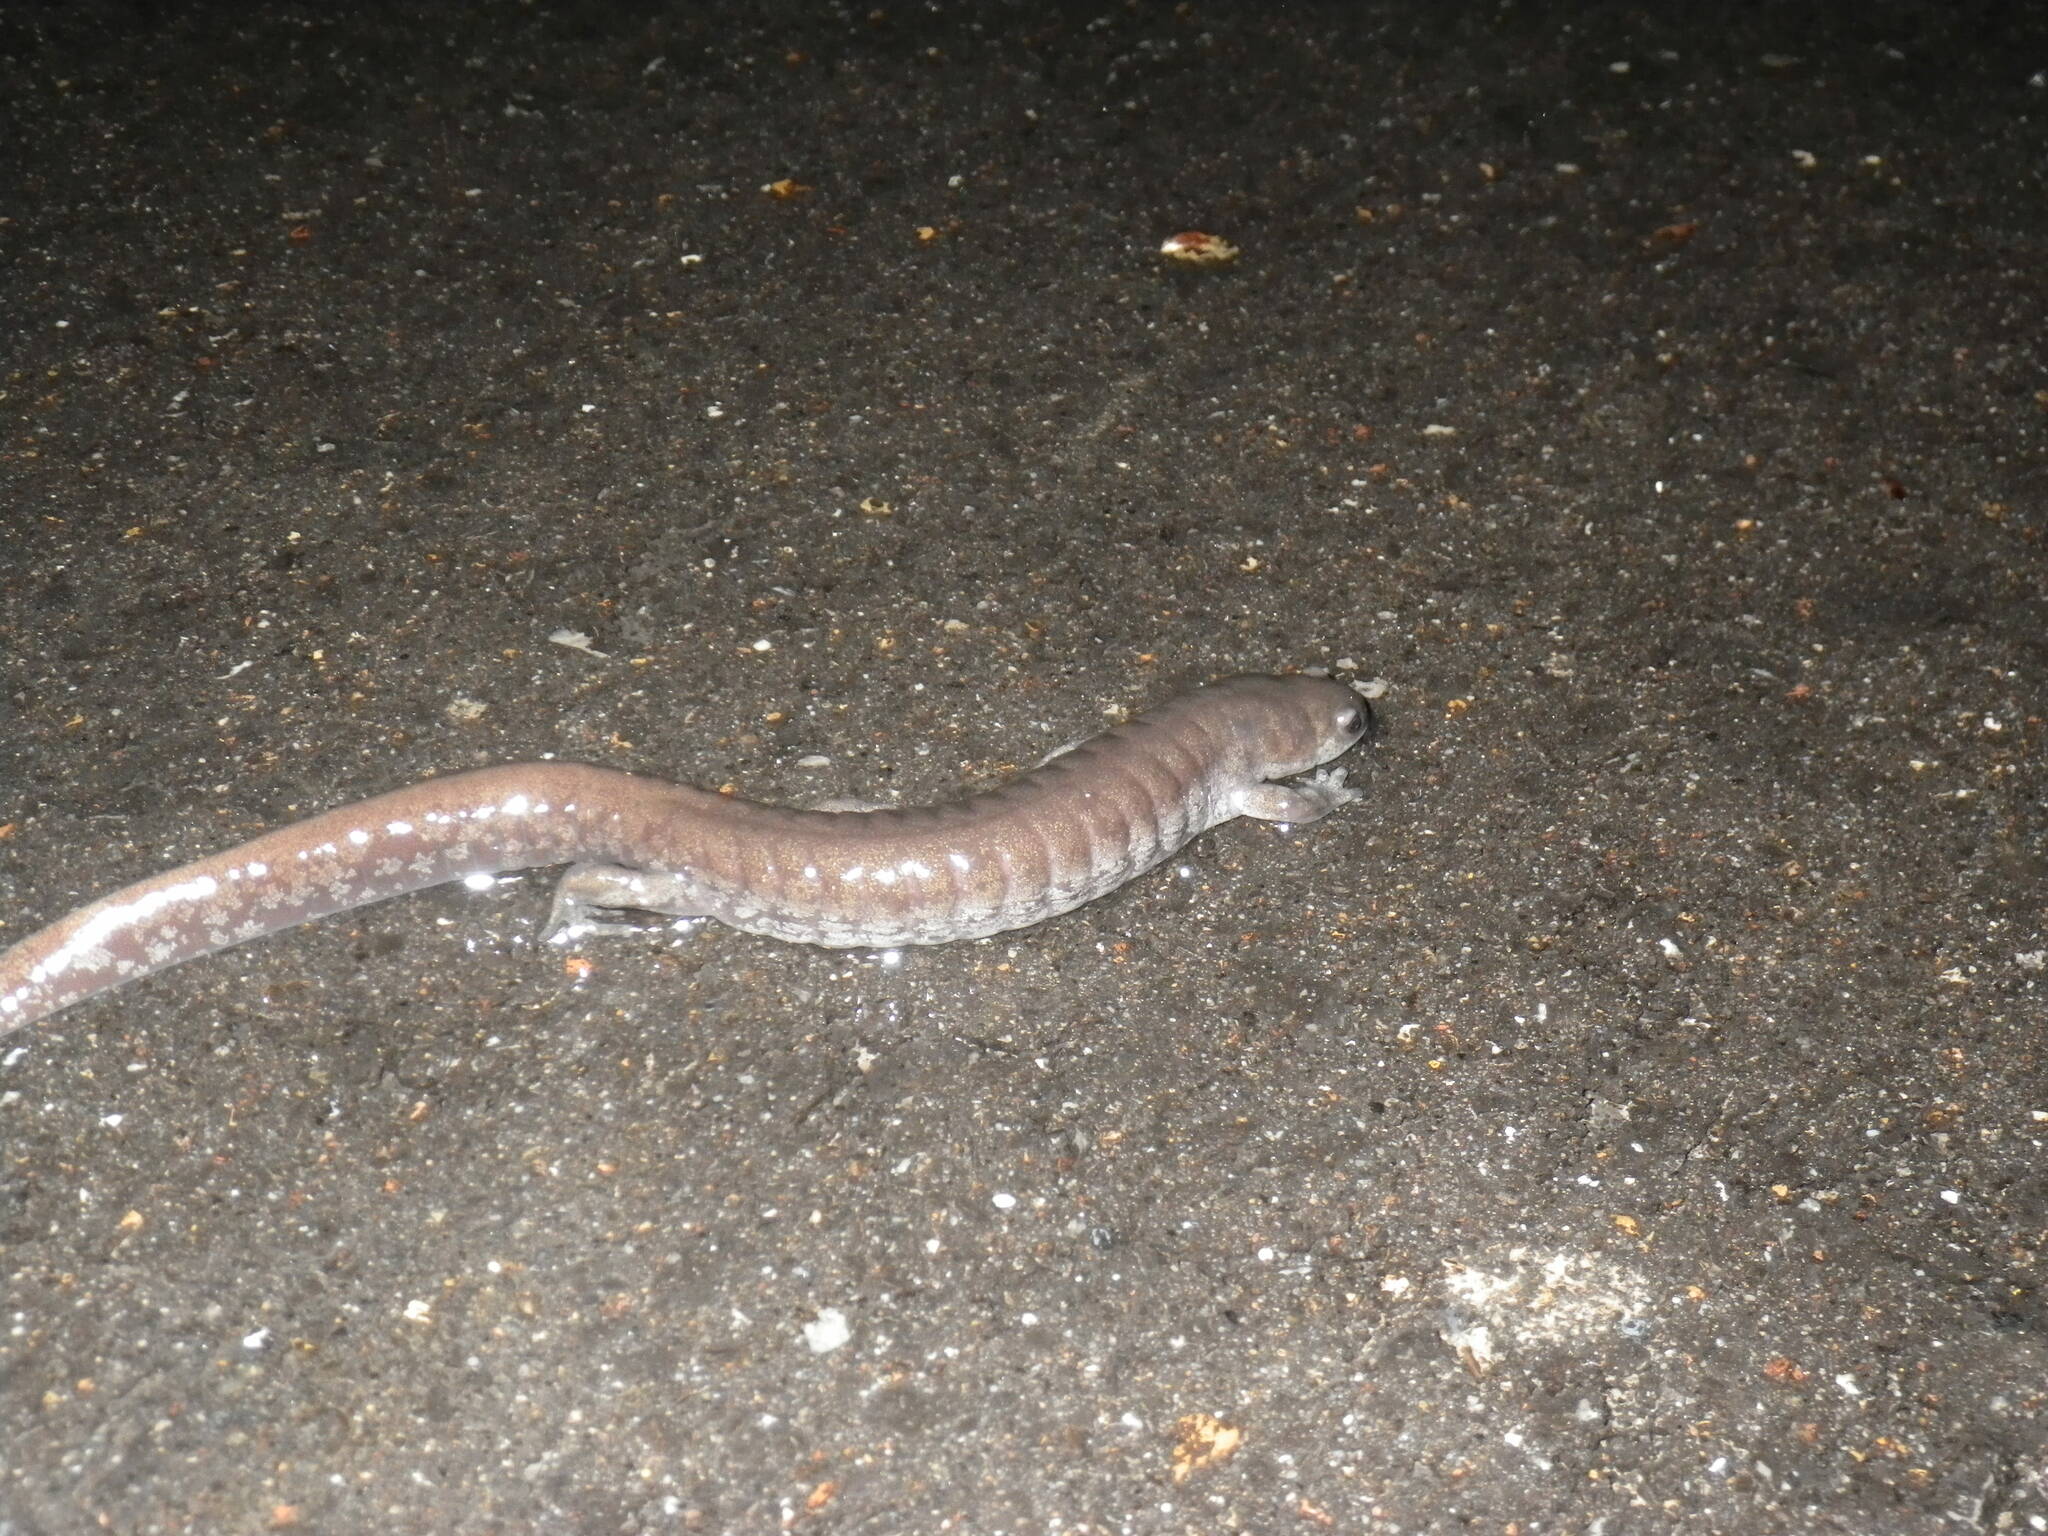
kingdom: Animalia
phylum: Chordata
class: Amphibia
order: Caudata
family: Ambystomatidae
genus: Ambystoma
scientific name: Ambystoma texanum
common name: Small-mouth salamander
